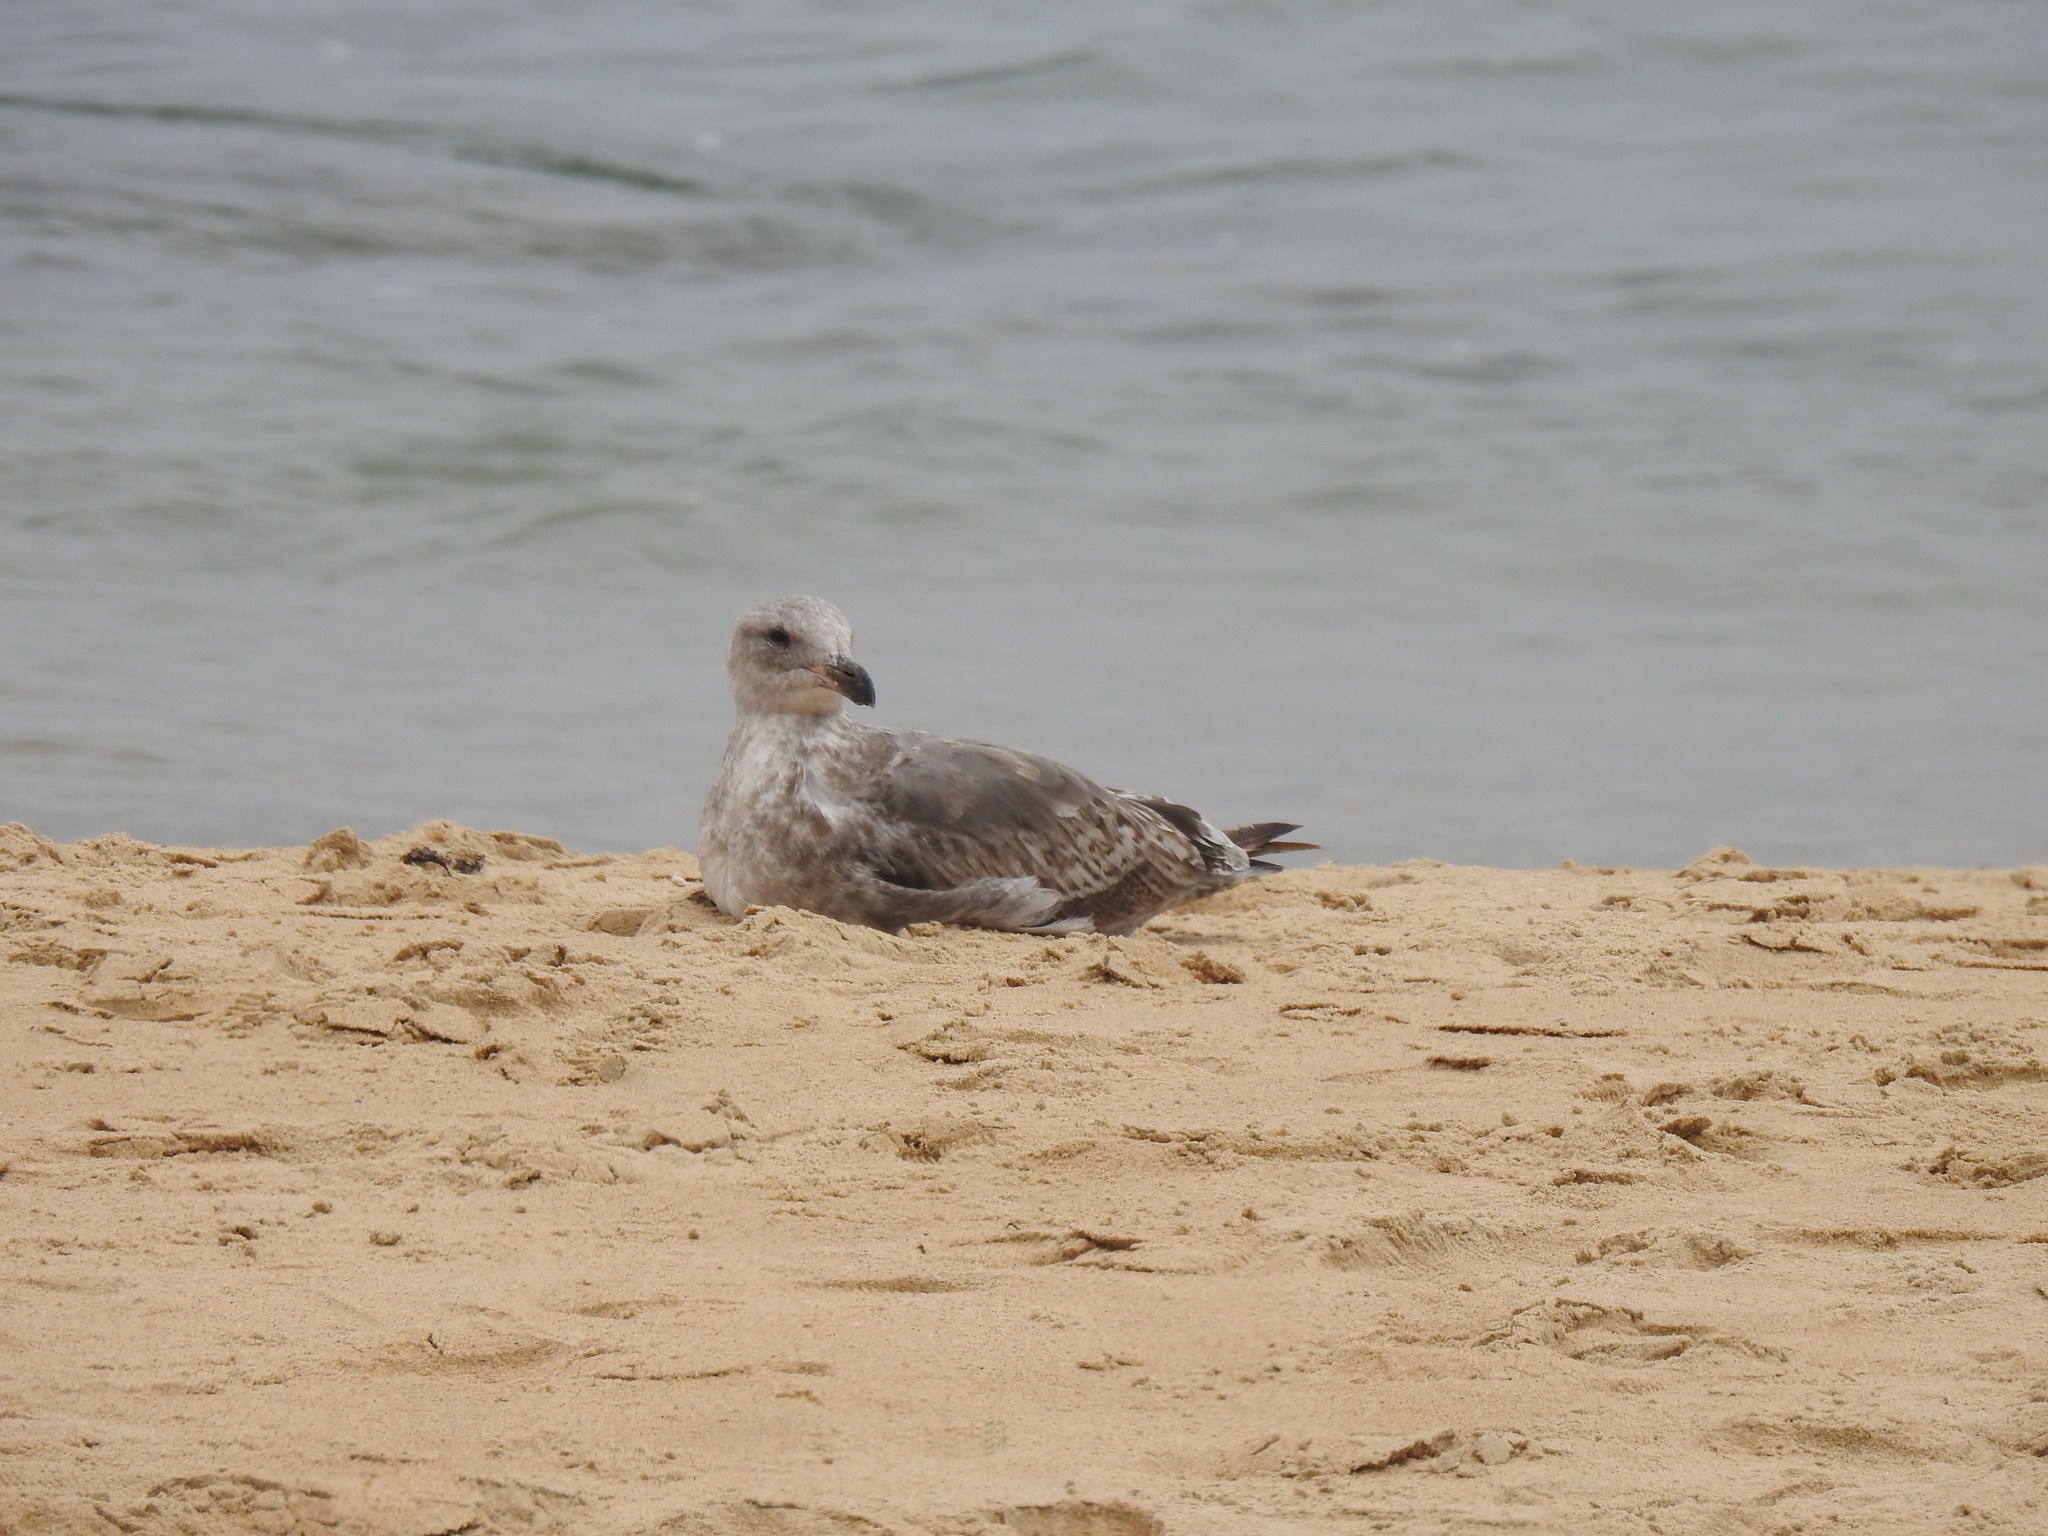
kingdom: Animalia
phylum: Chordata
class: Aves
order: Charadriiformes
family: Laridae
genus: Larus
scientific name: Larus occidentalis
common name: Western gull
